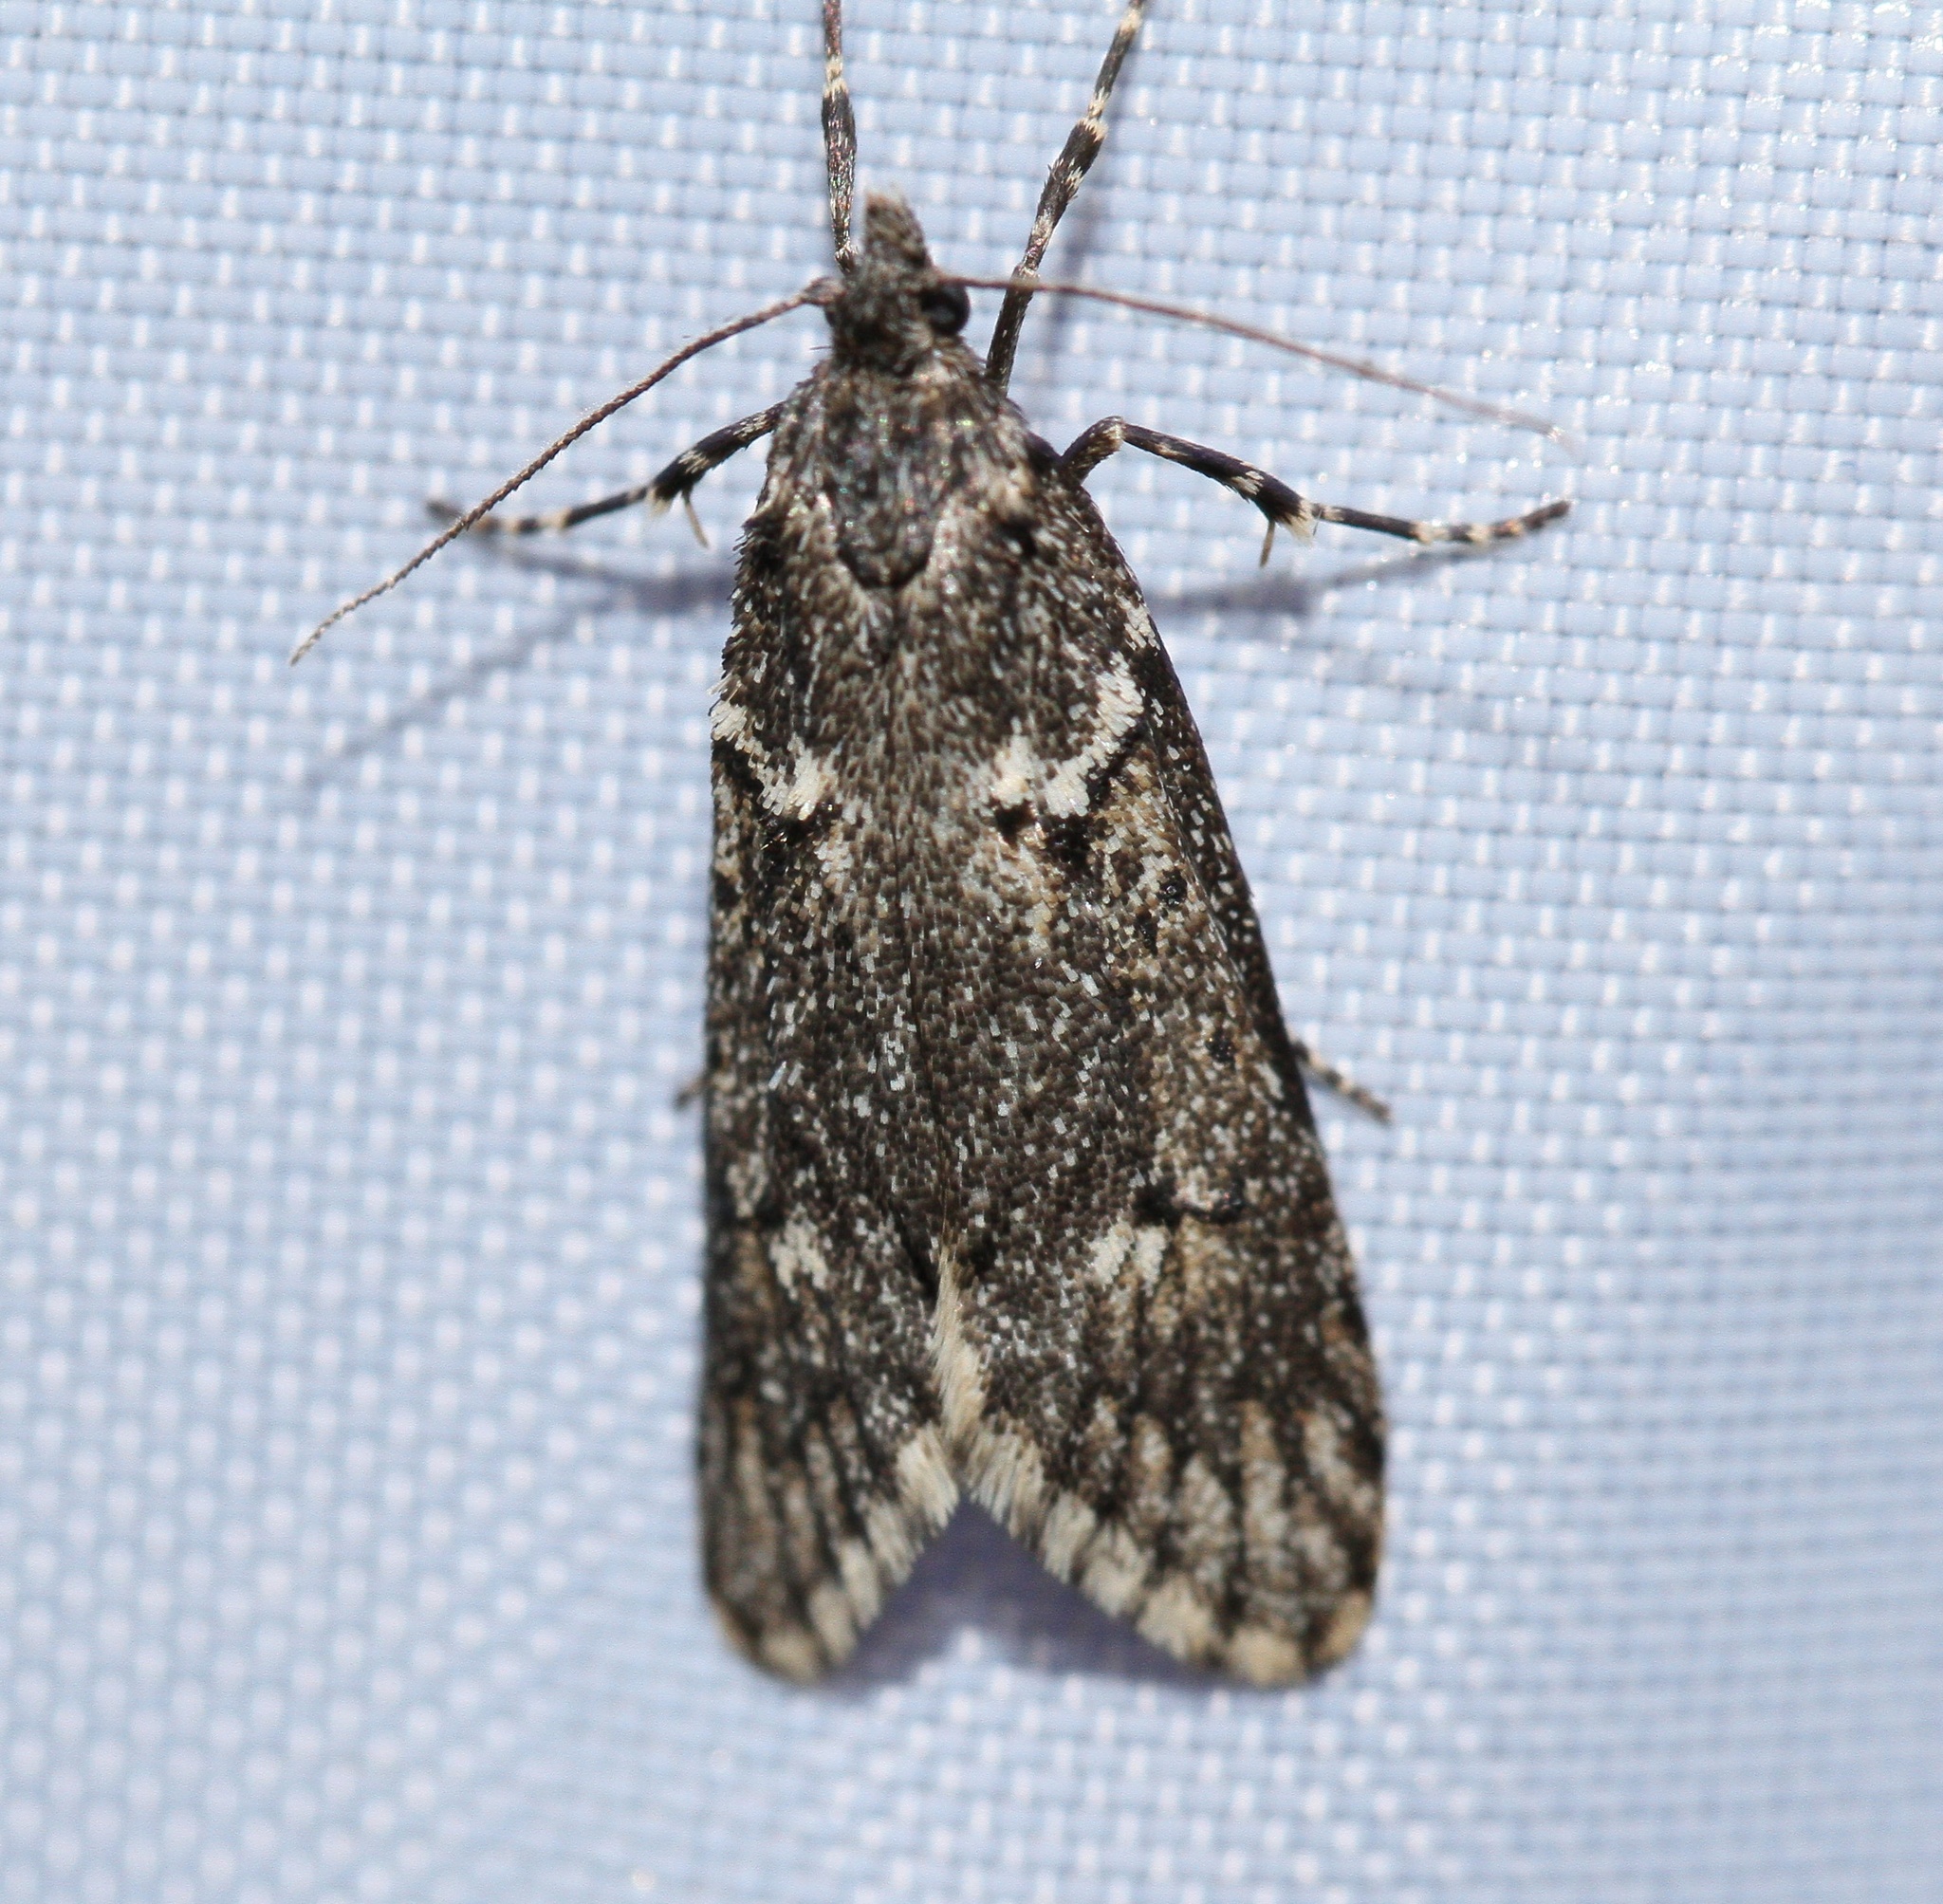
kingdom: Animalia
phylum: Arthropoda
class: Insecta
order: Lepidoptera
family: Lypusidae
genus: Diurnea
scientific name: Diurnea fagella
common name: March tubic
